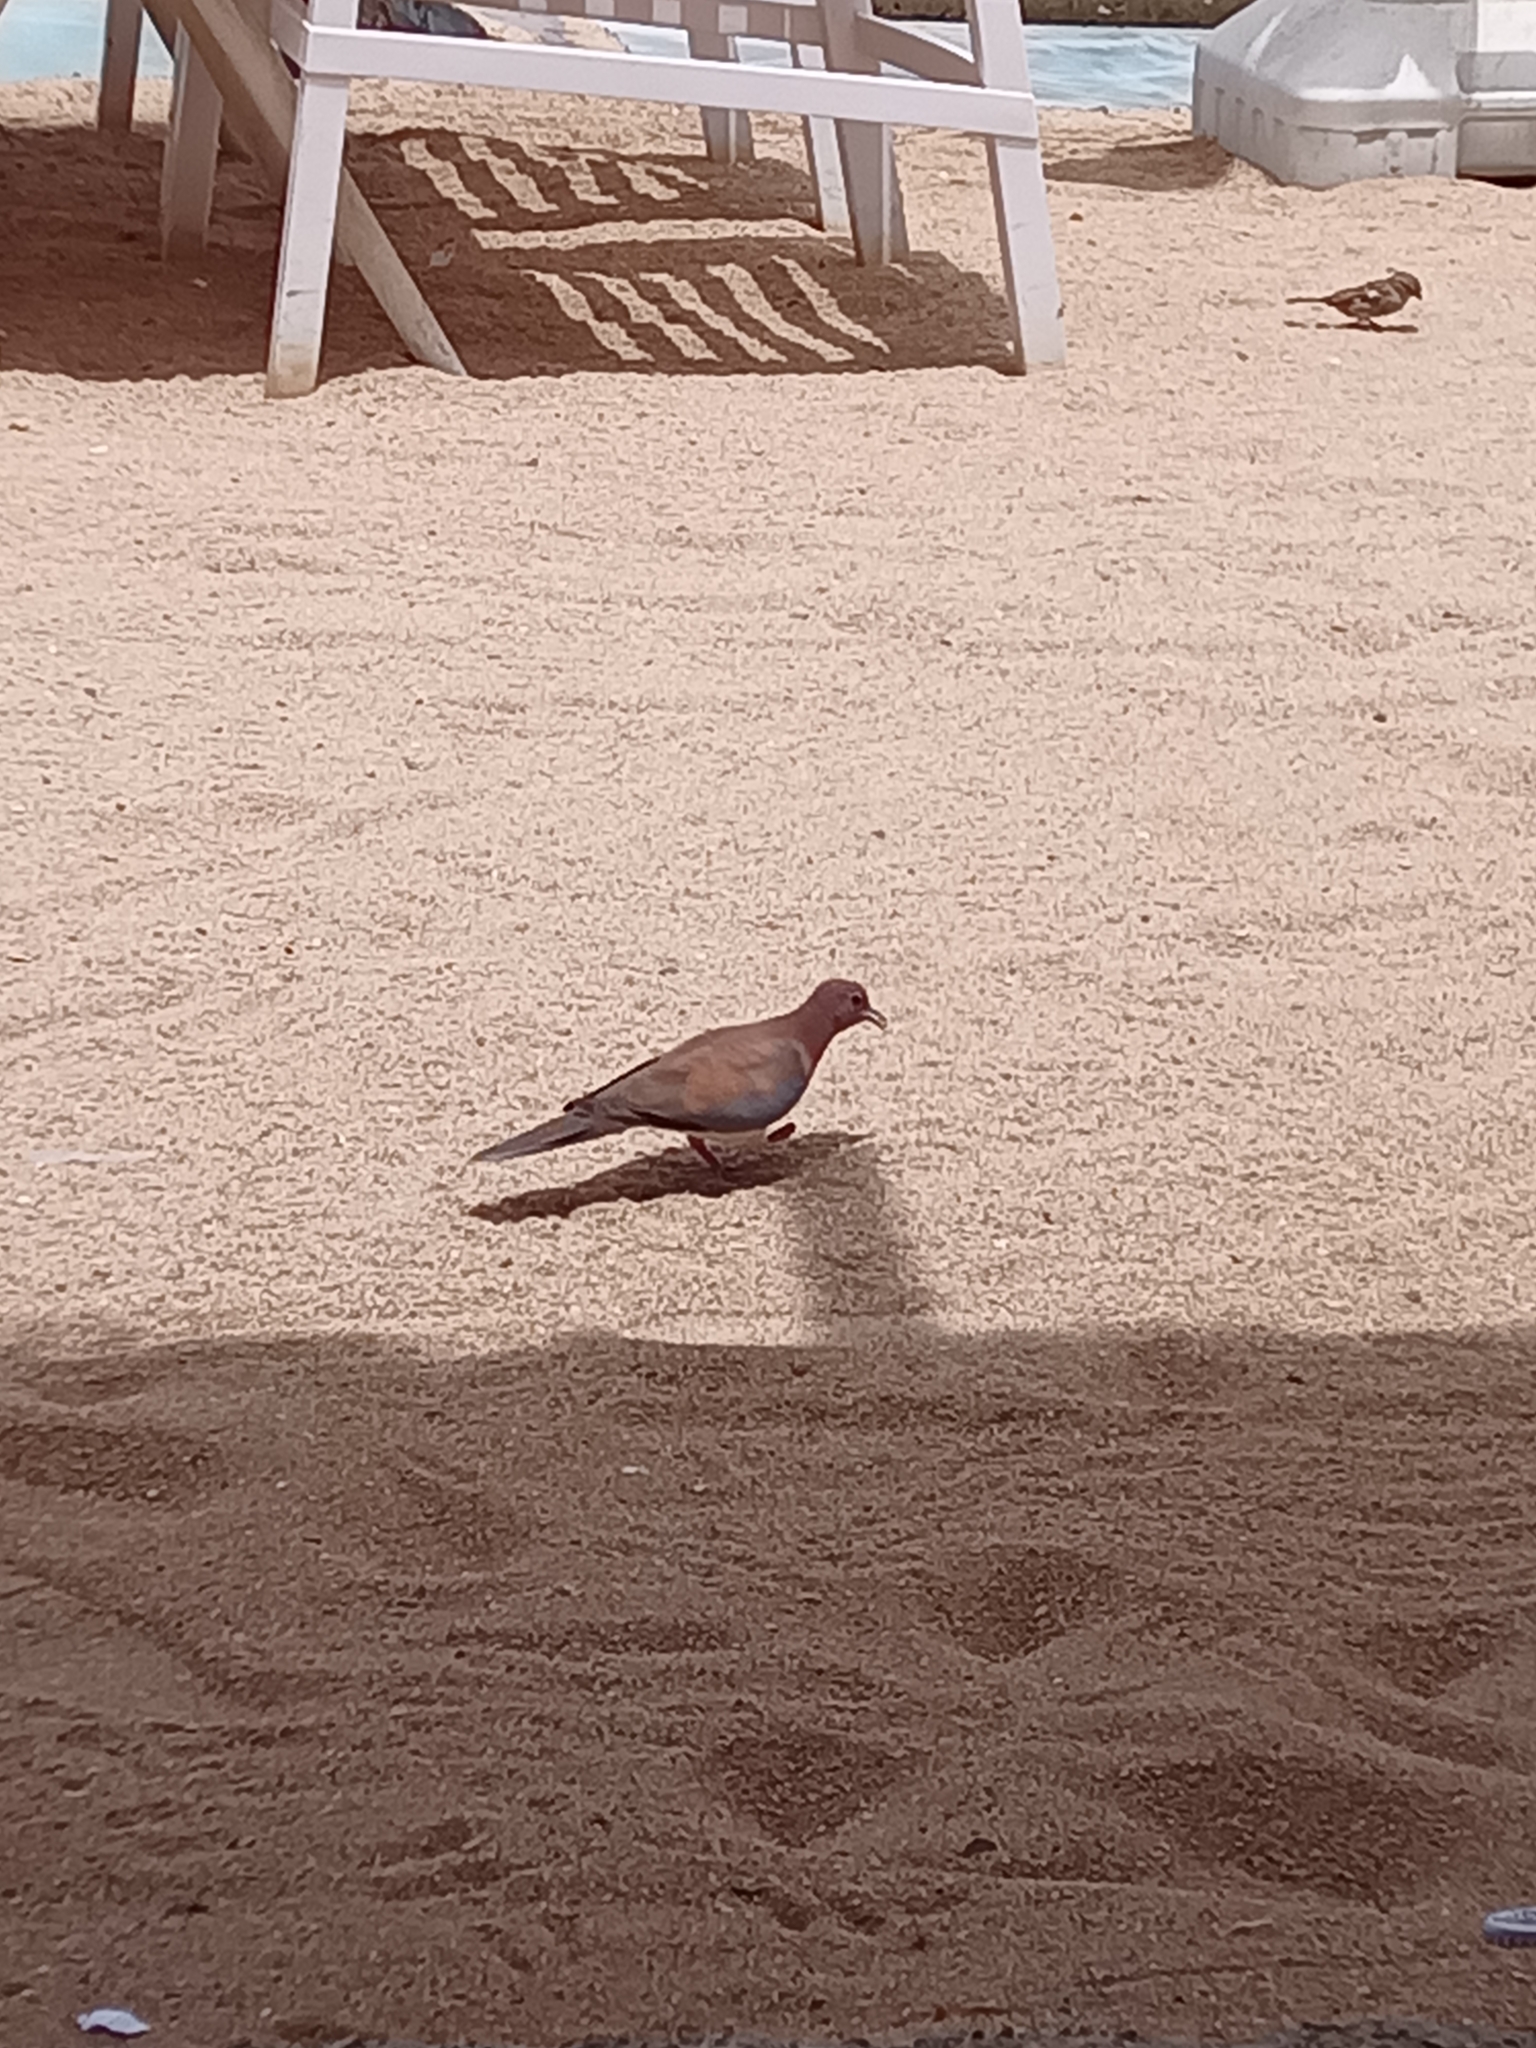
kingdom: Animalia
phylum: Chordata
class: Aves
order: Columbiformes
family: Columbidae
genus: Spilopelia
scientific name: Spilopelia senegalensis
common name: Laughing dove
